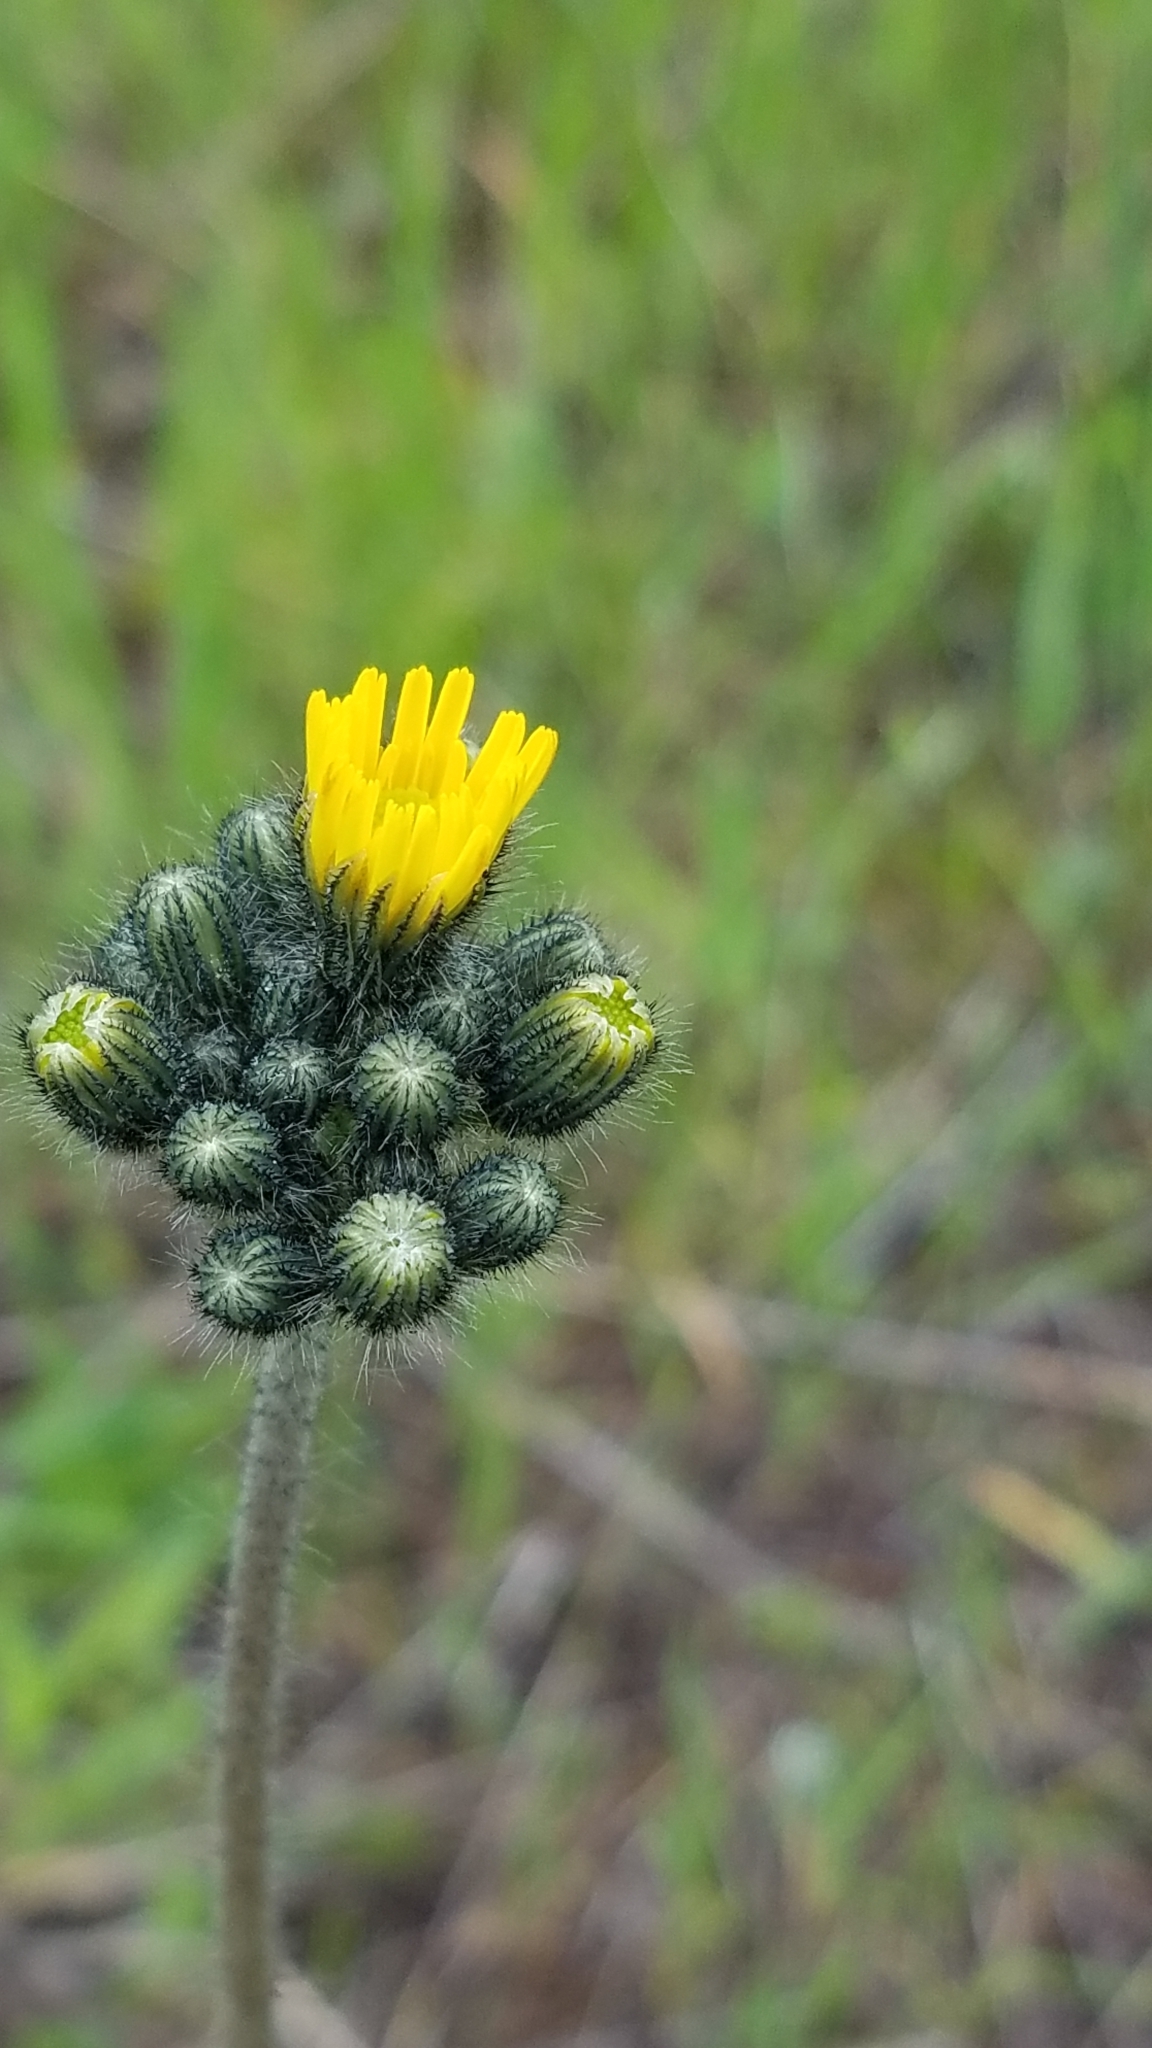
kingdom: Plantae
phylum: Tracheophyta
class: Magnoliopsida
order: Asterales
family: Asteraceae
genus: Pilosella
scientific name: Pilosella caespitosa
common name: Yellow fox-and-cubs
